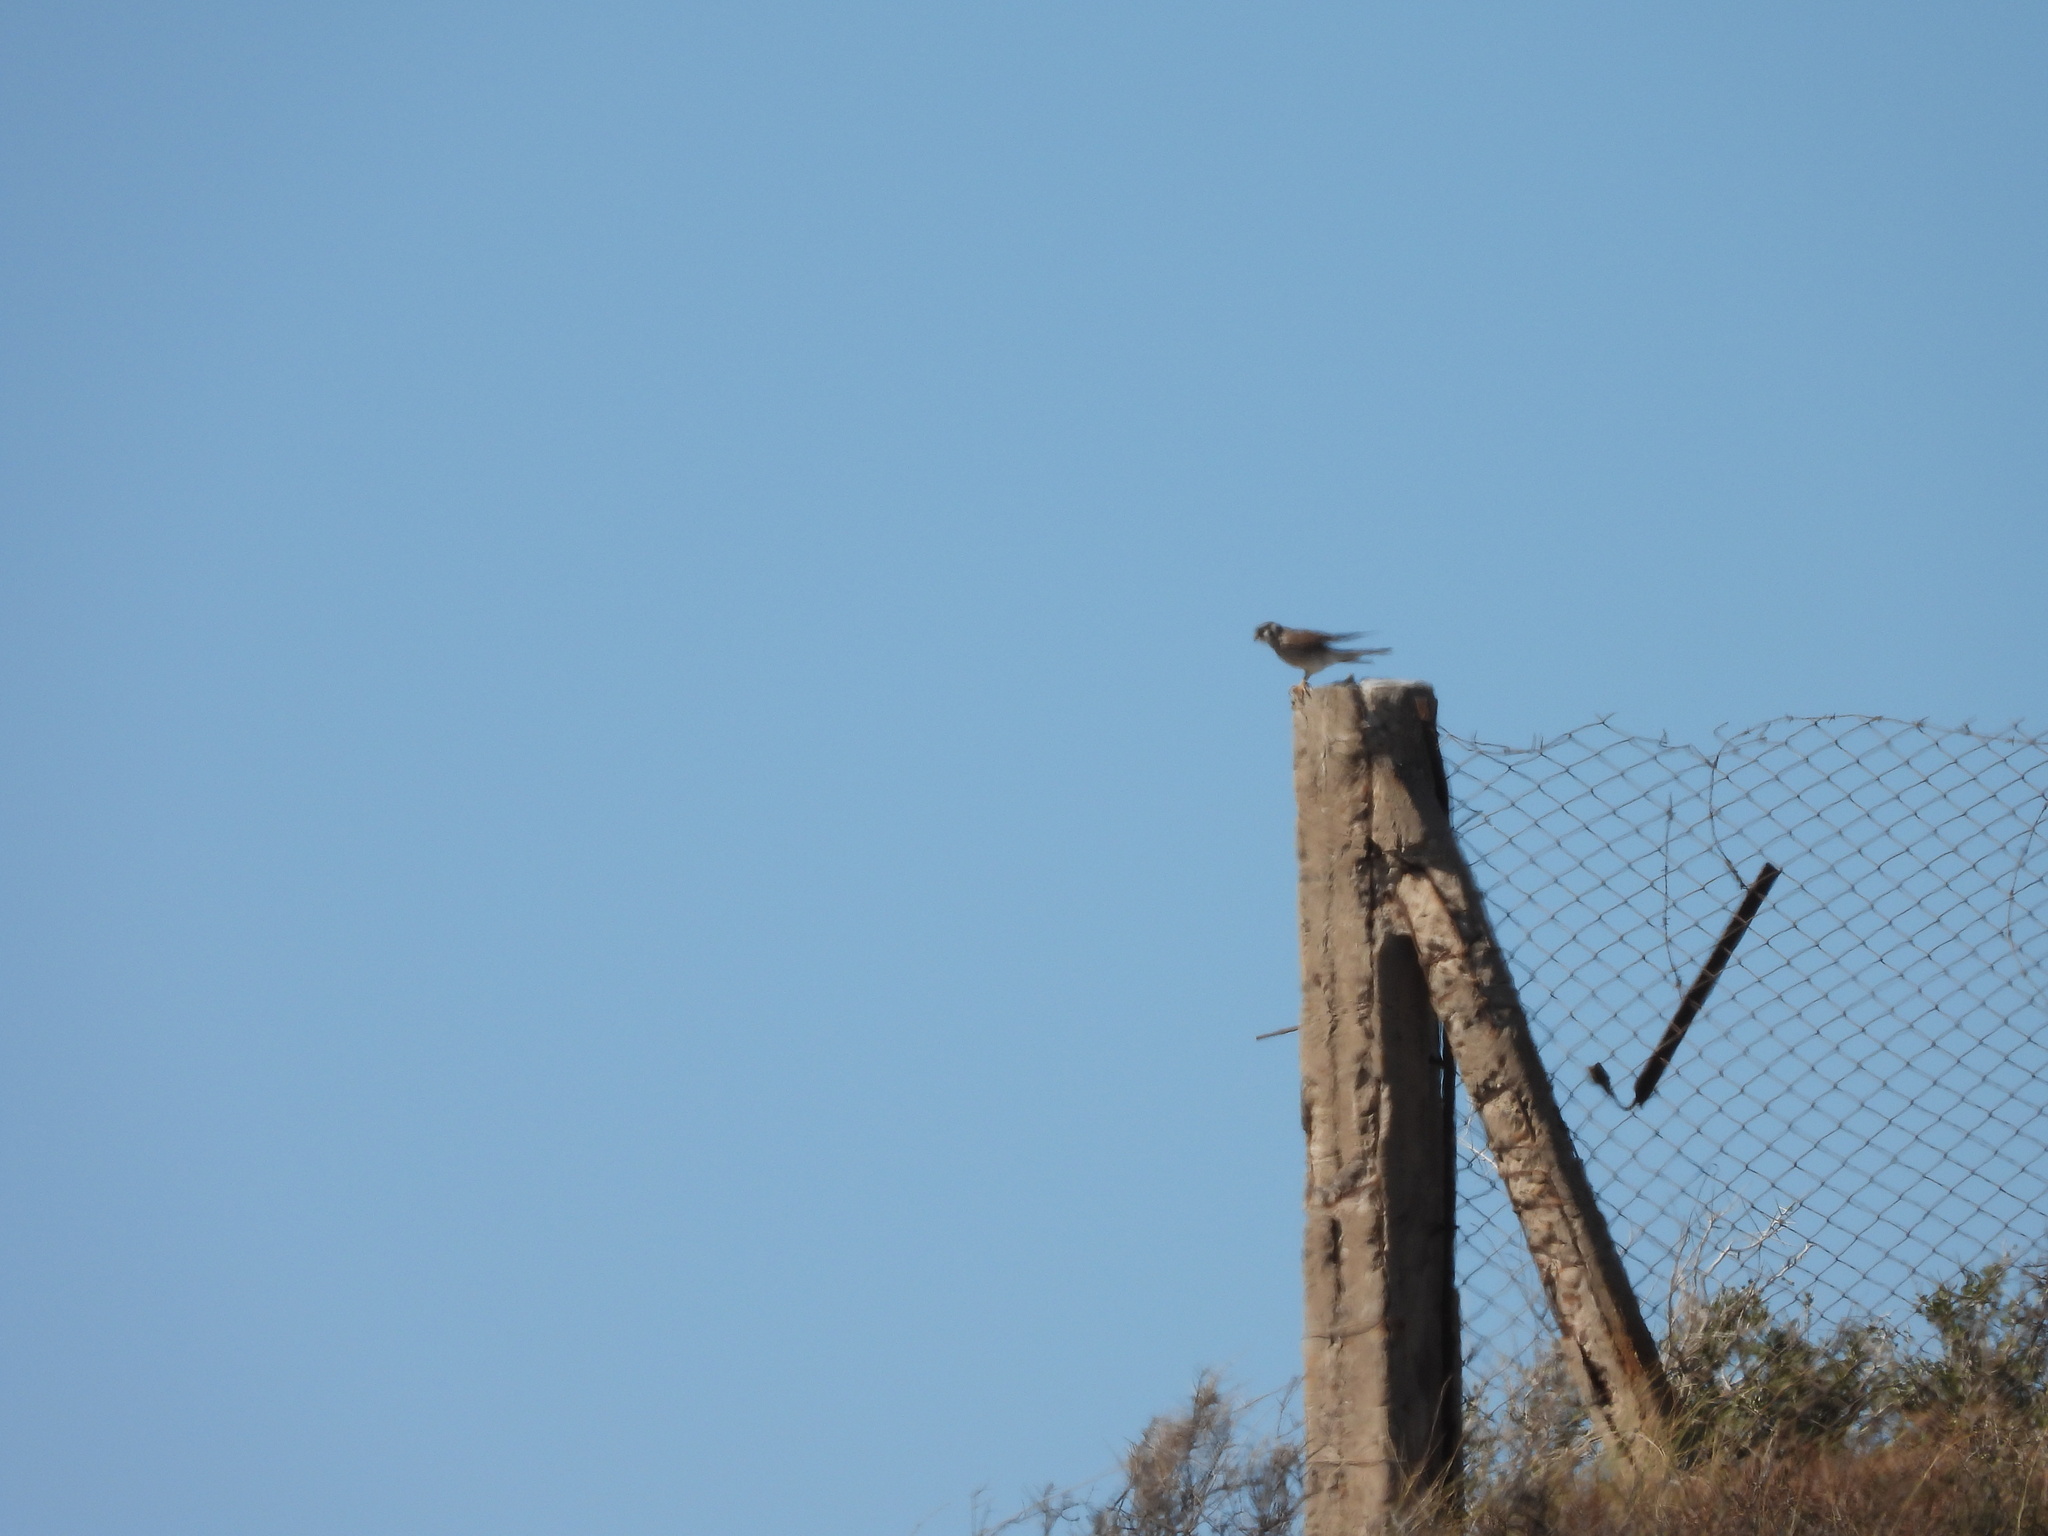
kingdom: Animalia
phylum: Chordata
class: Aves
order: Falconiformes
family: Falconidae
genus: Falco
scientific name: Falco sparverius
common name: American kestrel
